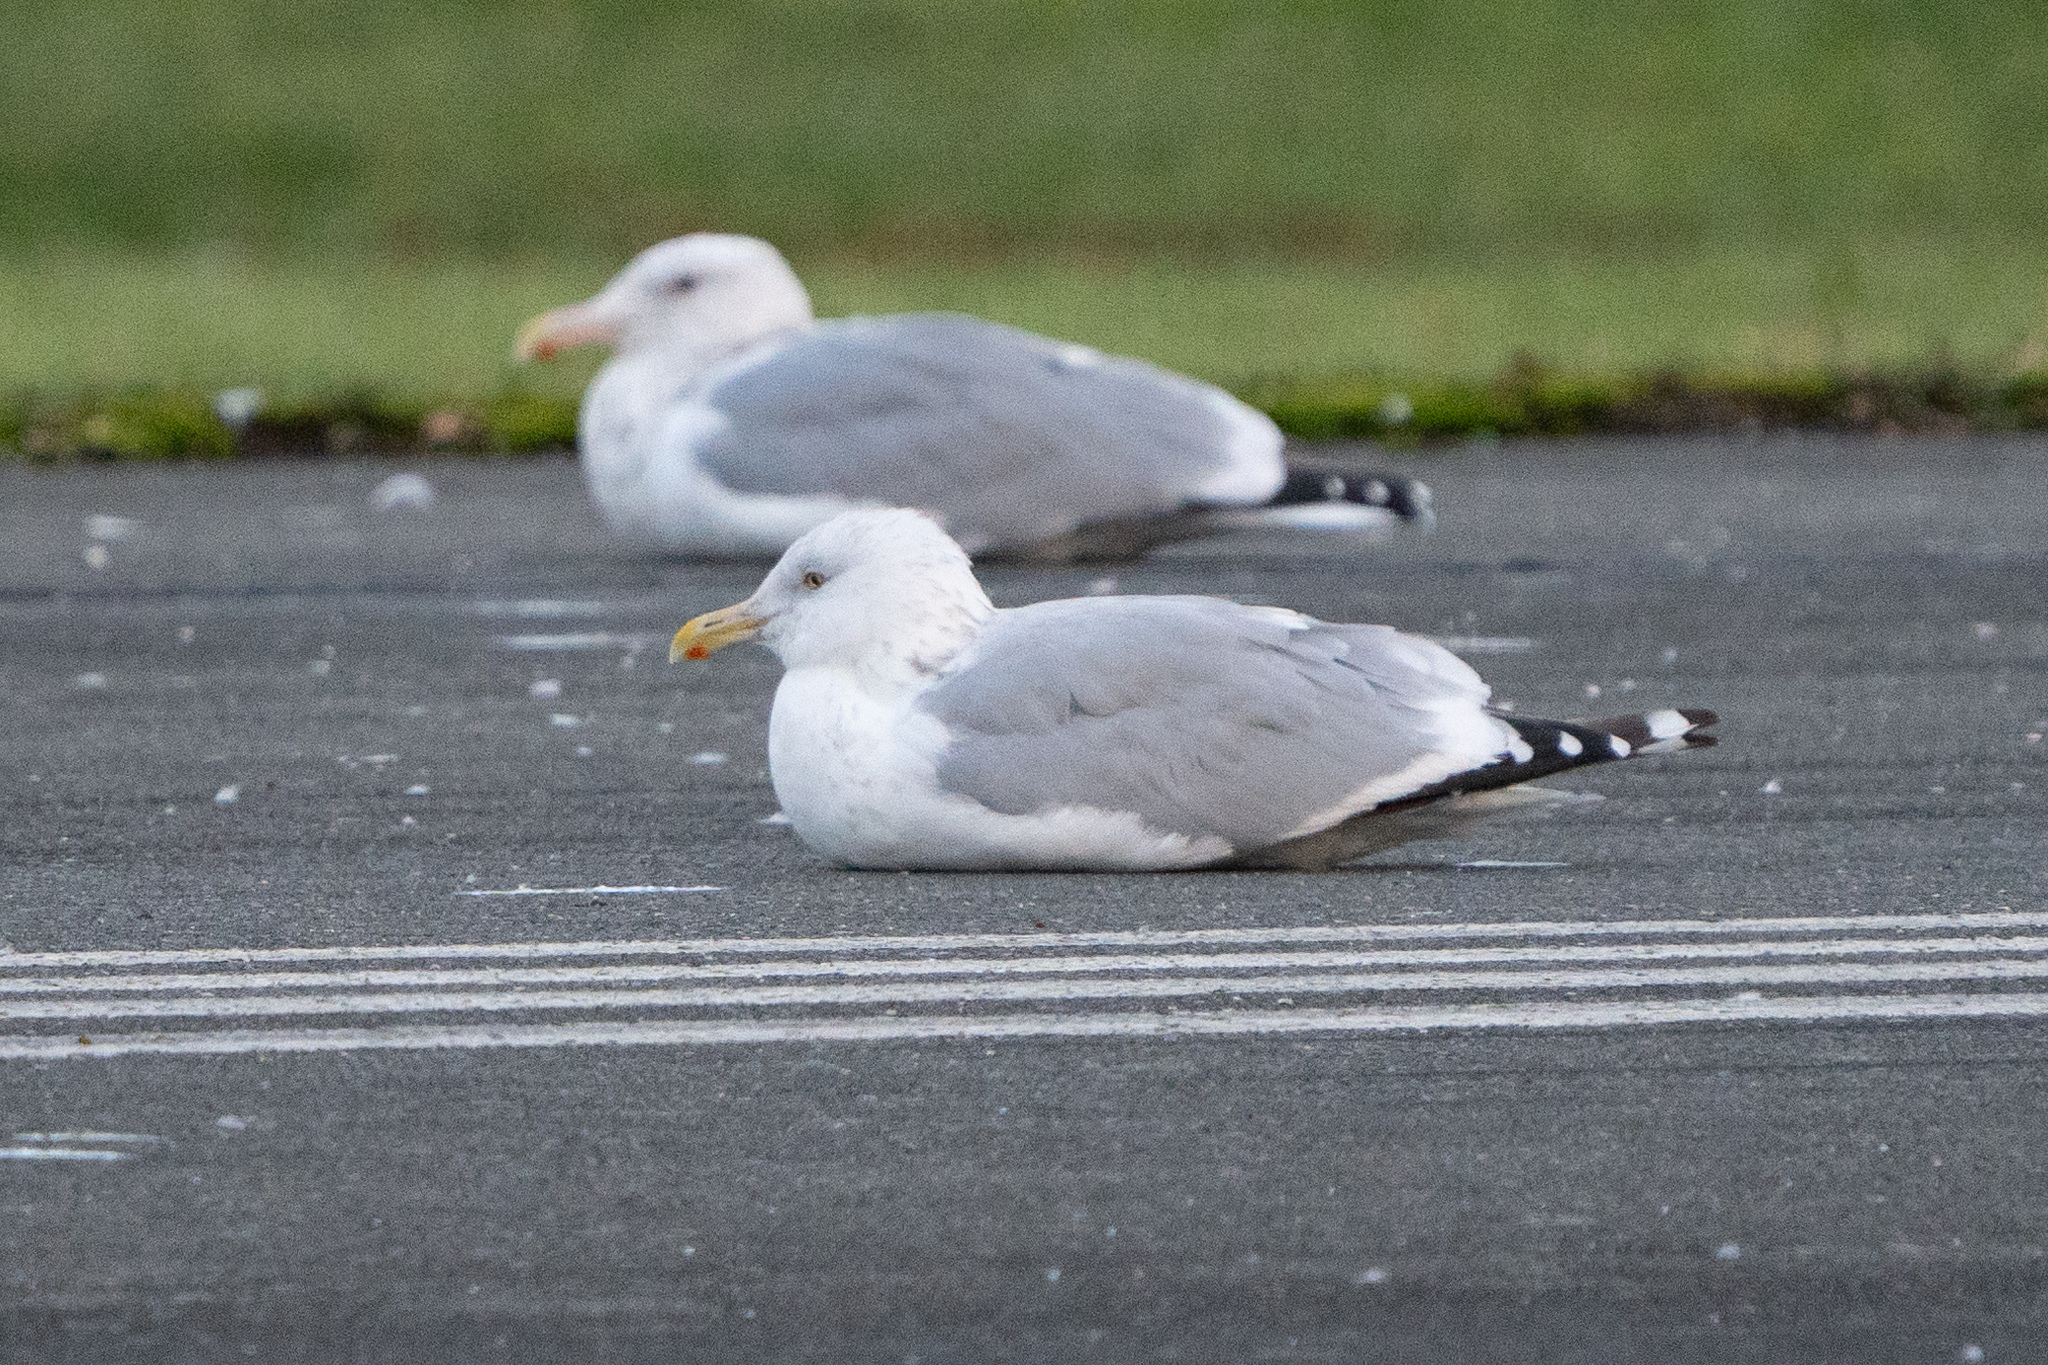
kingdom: Animalia
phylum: Chordata
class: Aves
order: Charadriiformes
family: Laridae
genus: Larus
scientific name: Larus argentatus
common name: Herring gull
